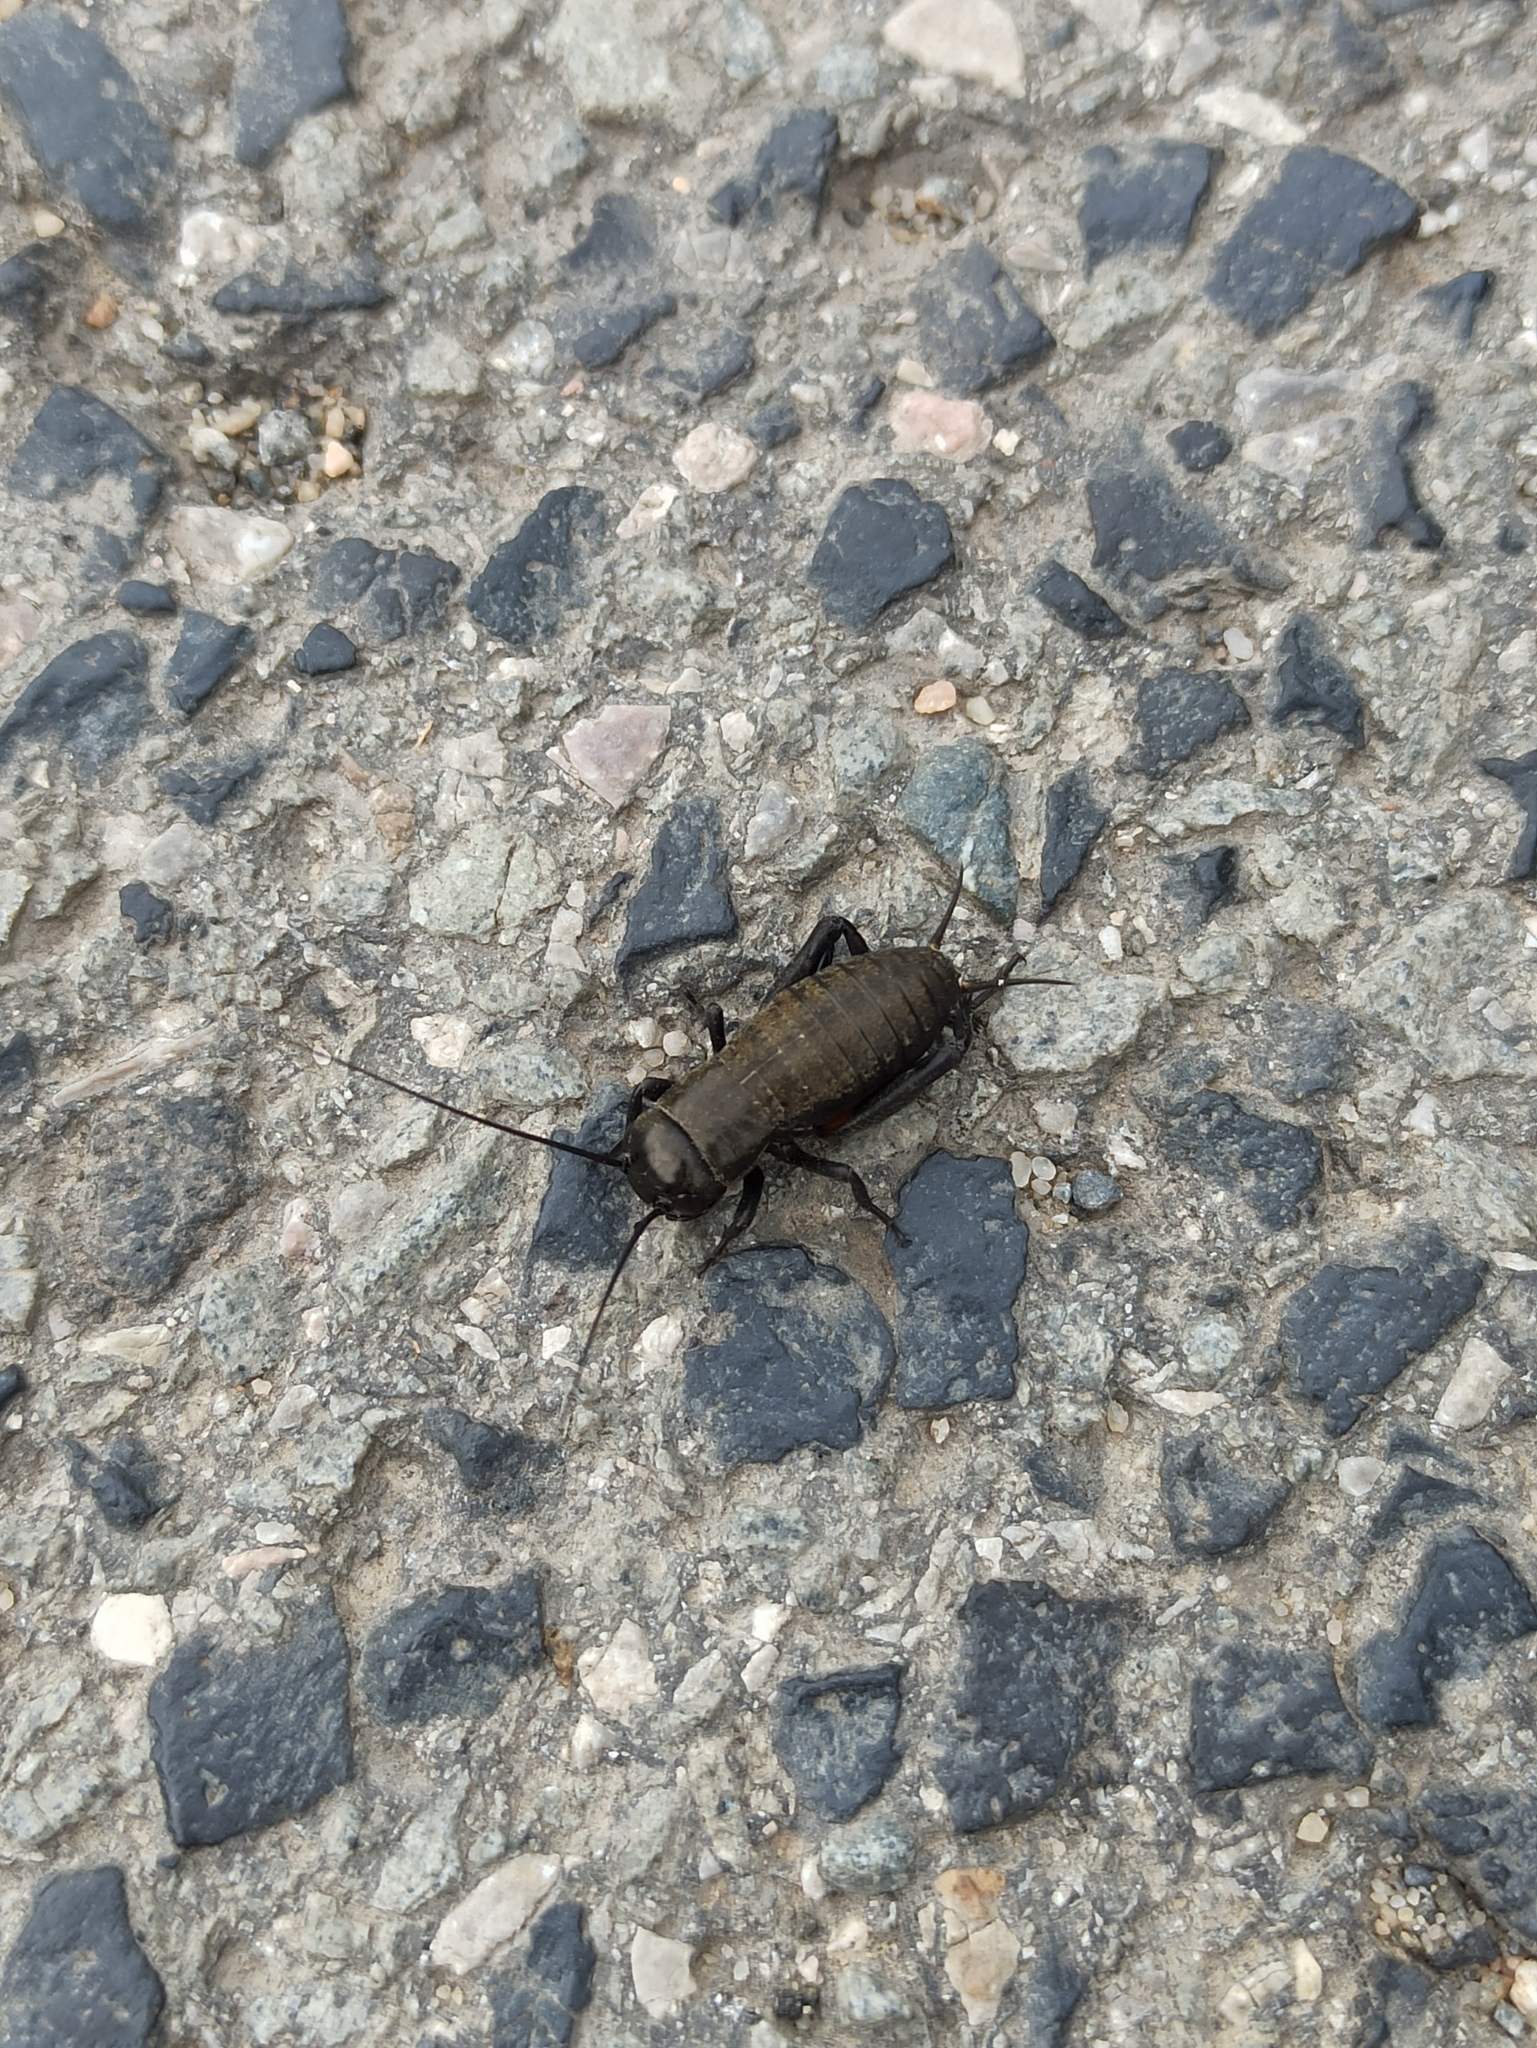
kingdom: Animalia
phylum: Arthropoda
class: Insecta
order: Orthoptera
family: Gryllidae
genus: Gryllus
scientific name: Gryllus campestris
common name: Field cricket
